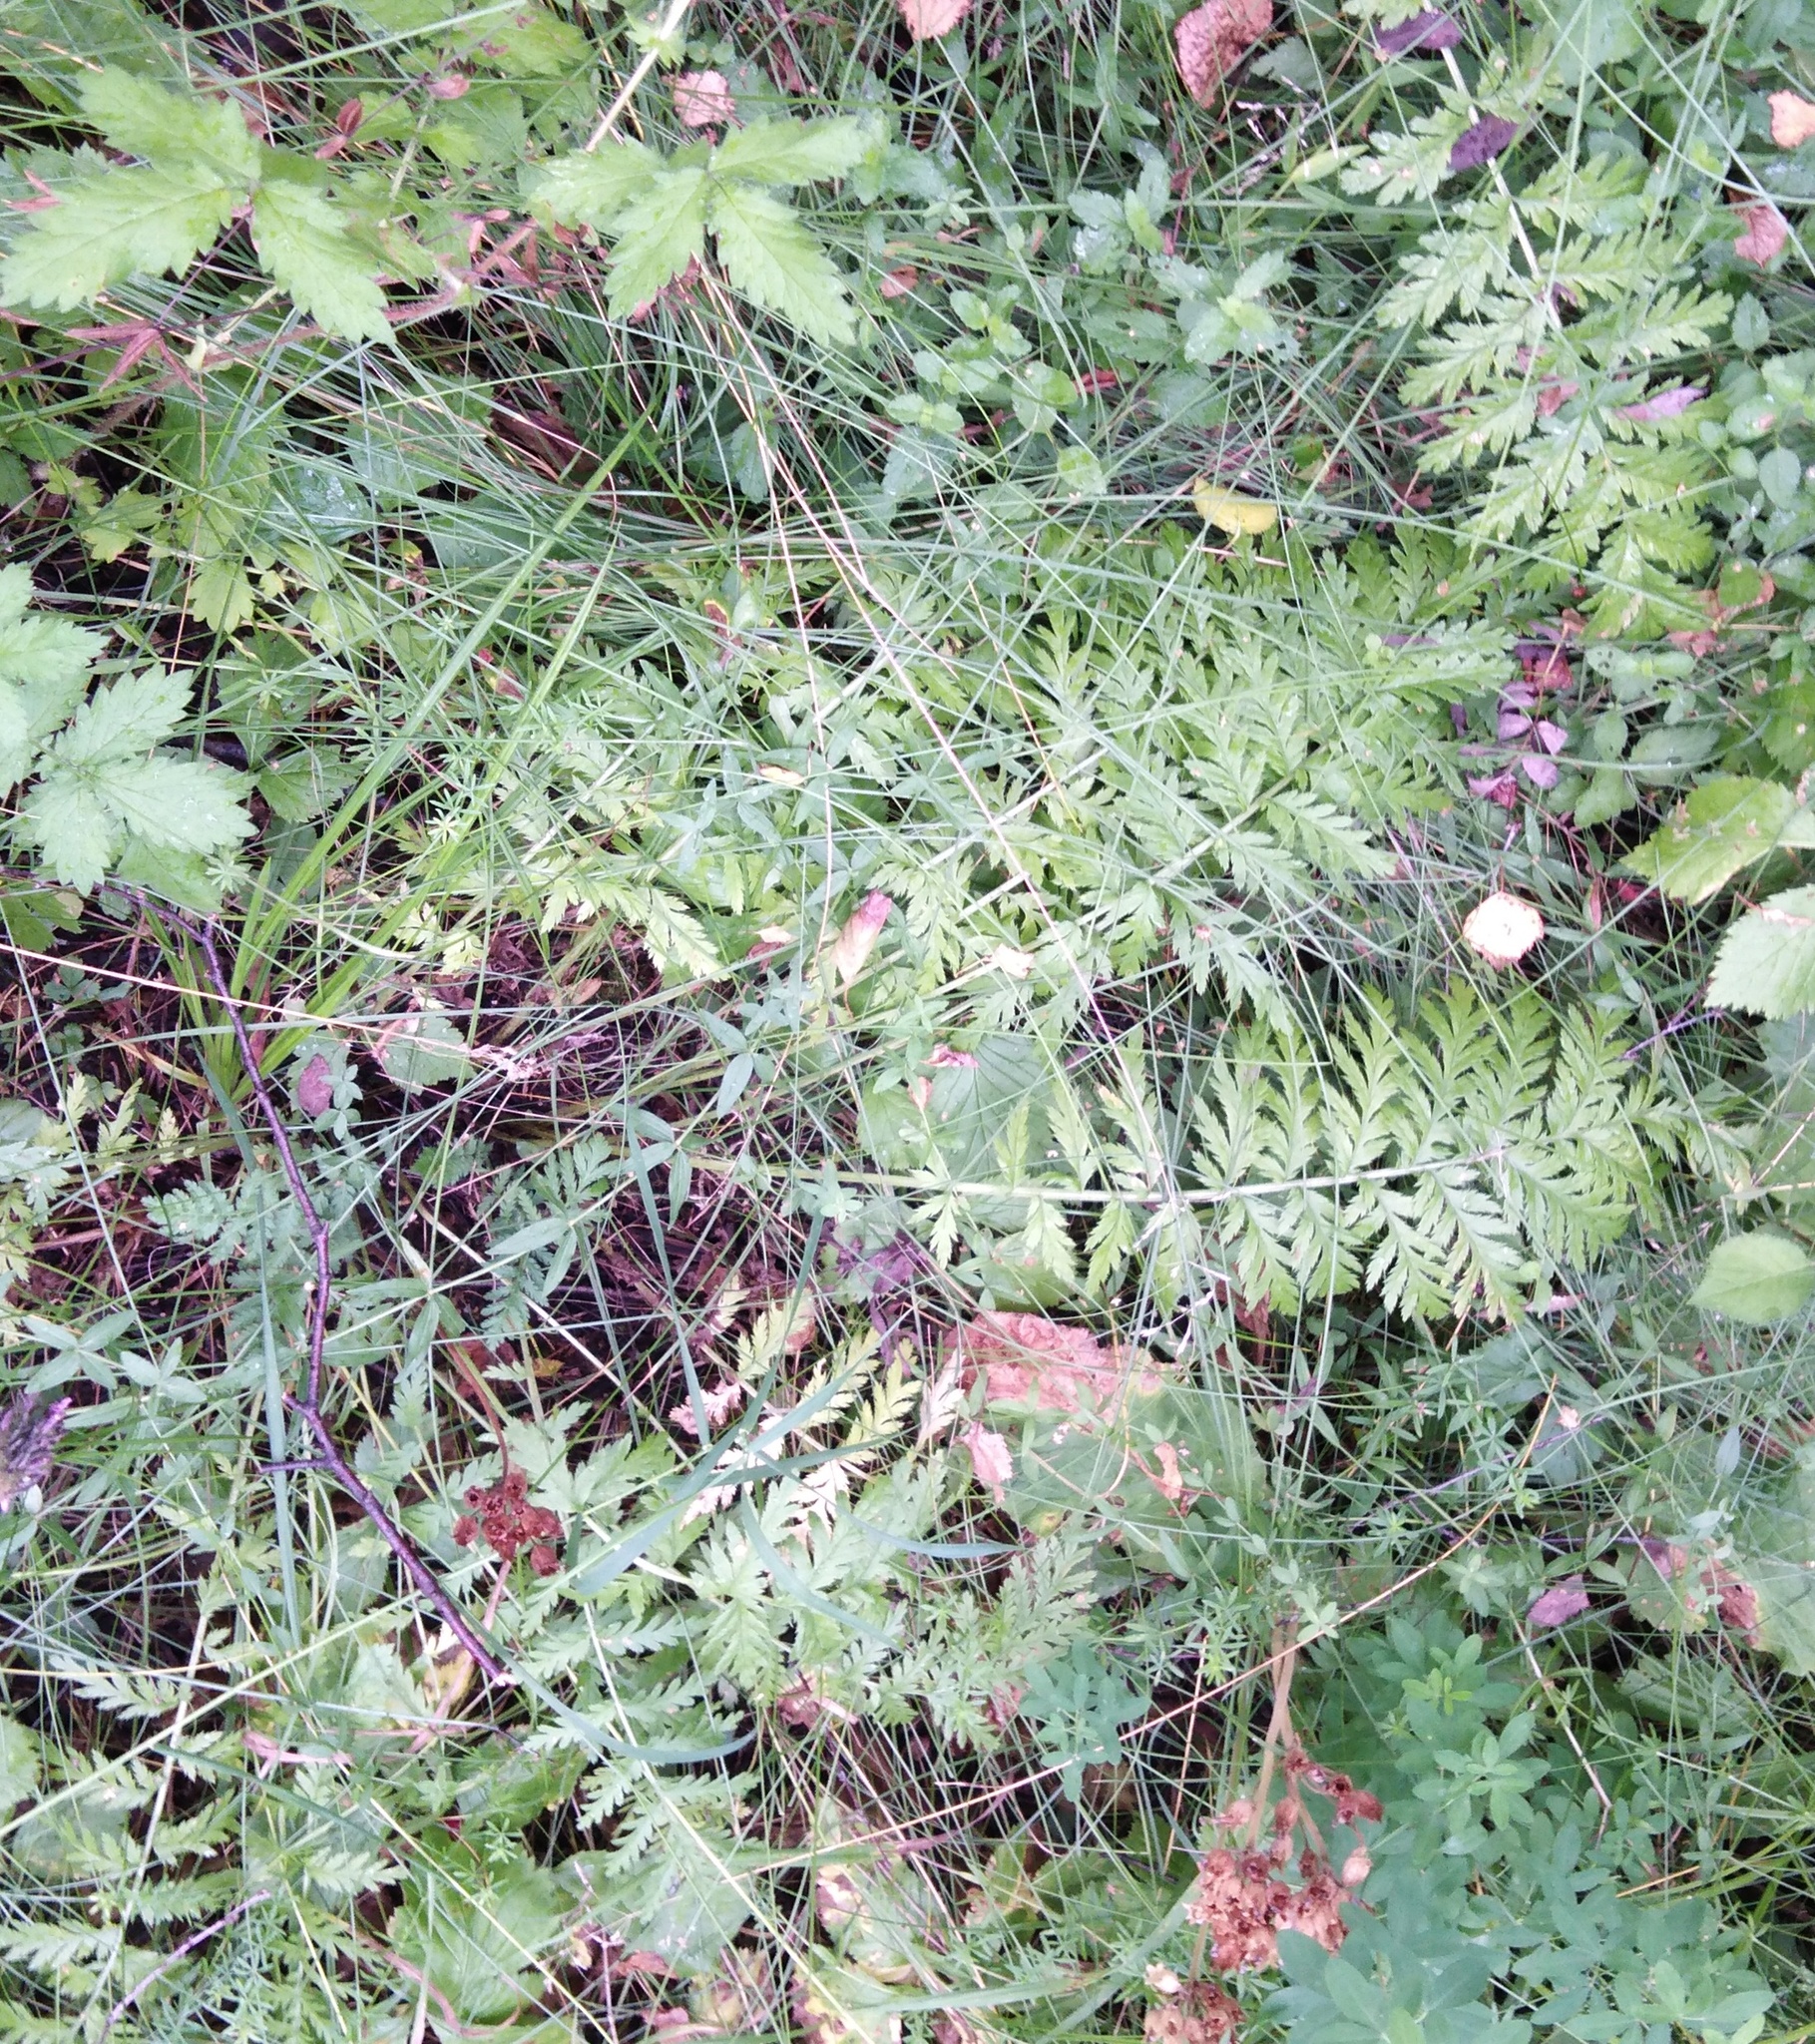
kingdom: Plantae
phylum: Tracheophyta
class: Magnoliopsida
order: Asterales
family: Asteraceae
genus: Tanacetum
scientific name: Tanacetum corymbosum
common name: Scentless feverfew
